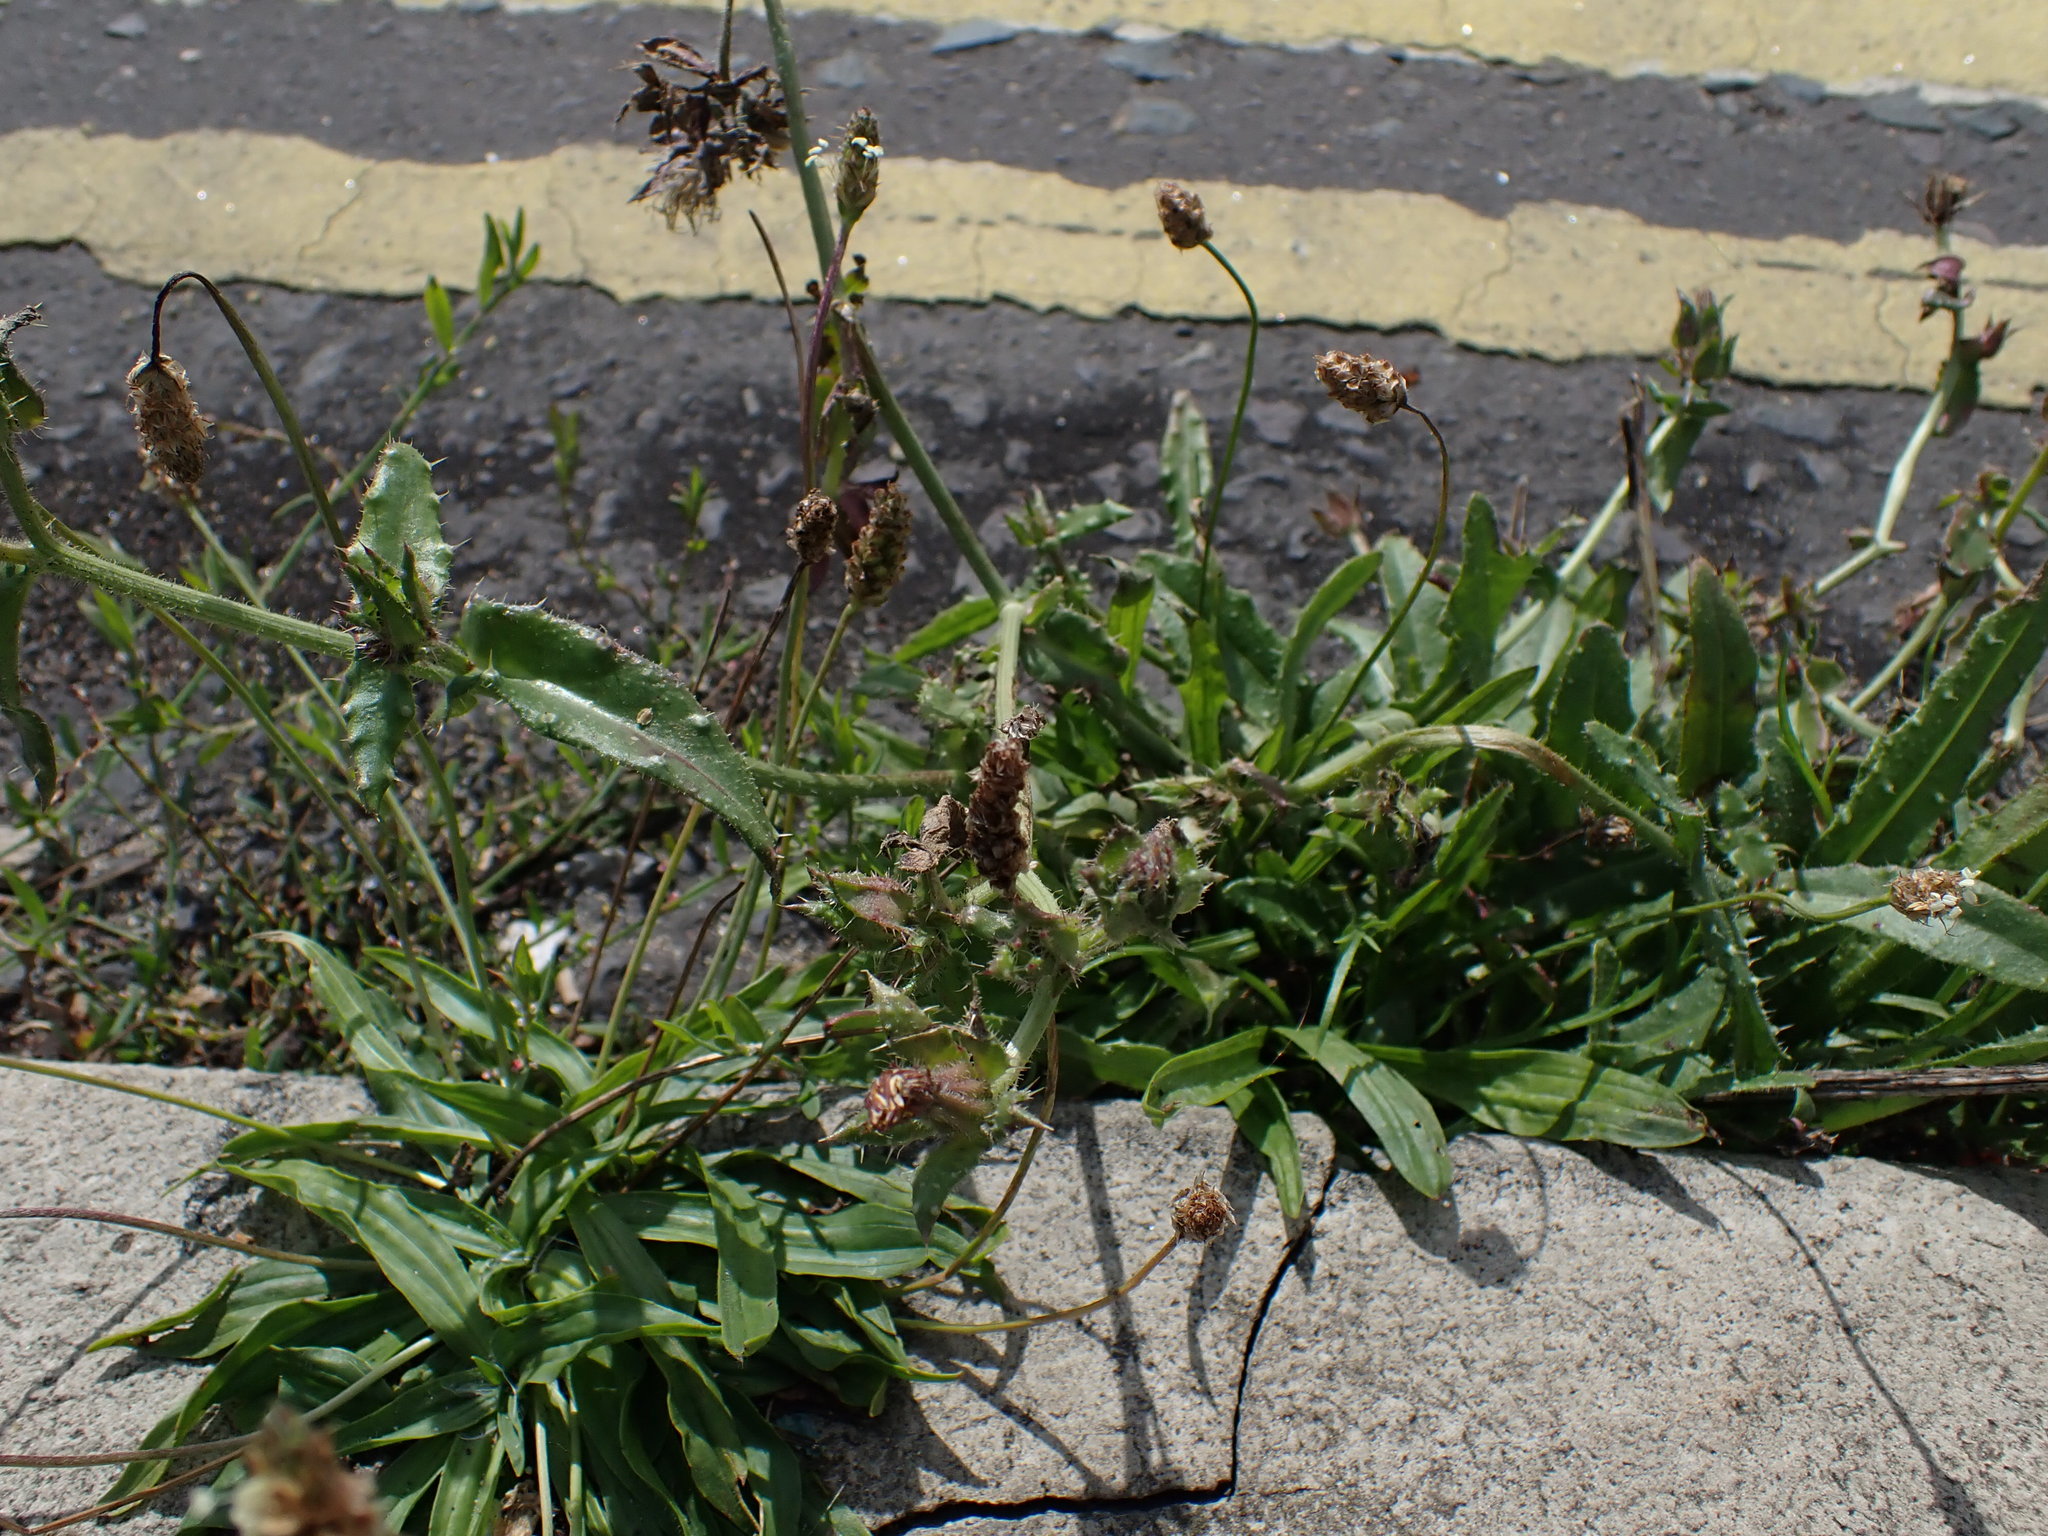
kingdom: Plantae
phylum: Tracheophyta
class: Magnoliopsida
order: Asterales
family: Asteraceae
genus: Helminthotheca
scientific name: Helminthotheca echioides
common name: Ox-tongue
